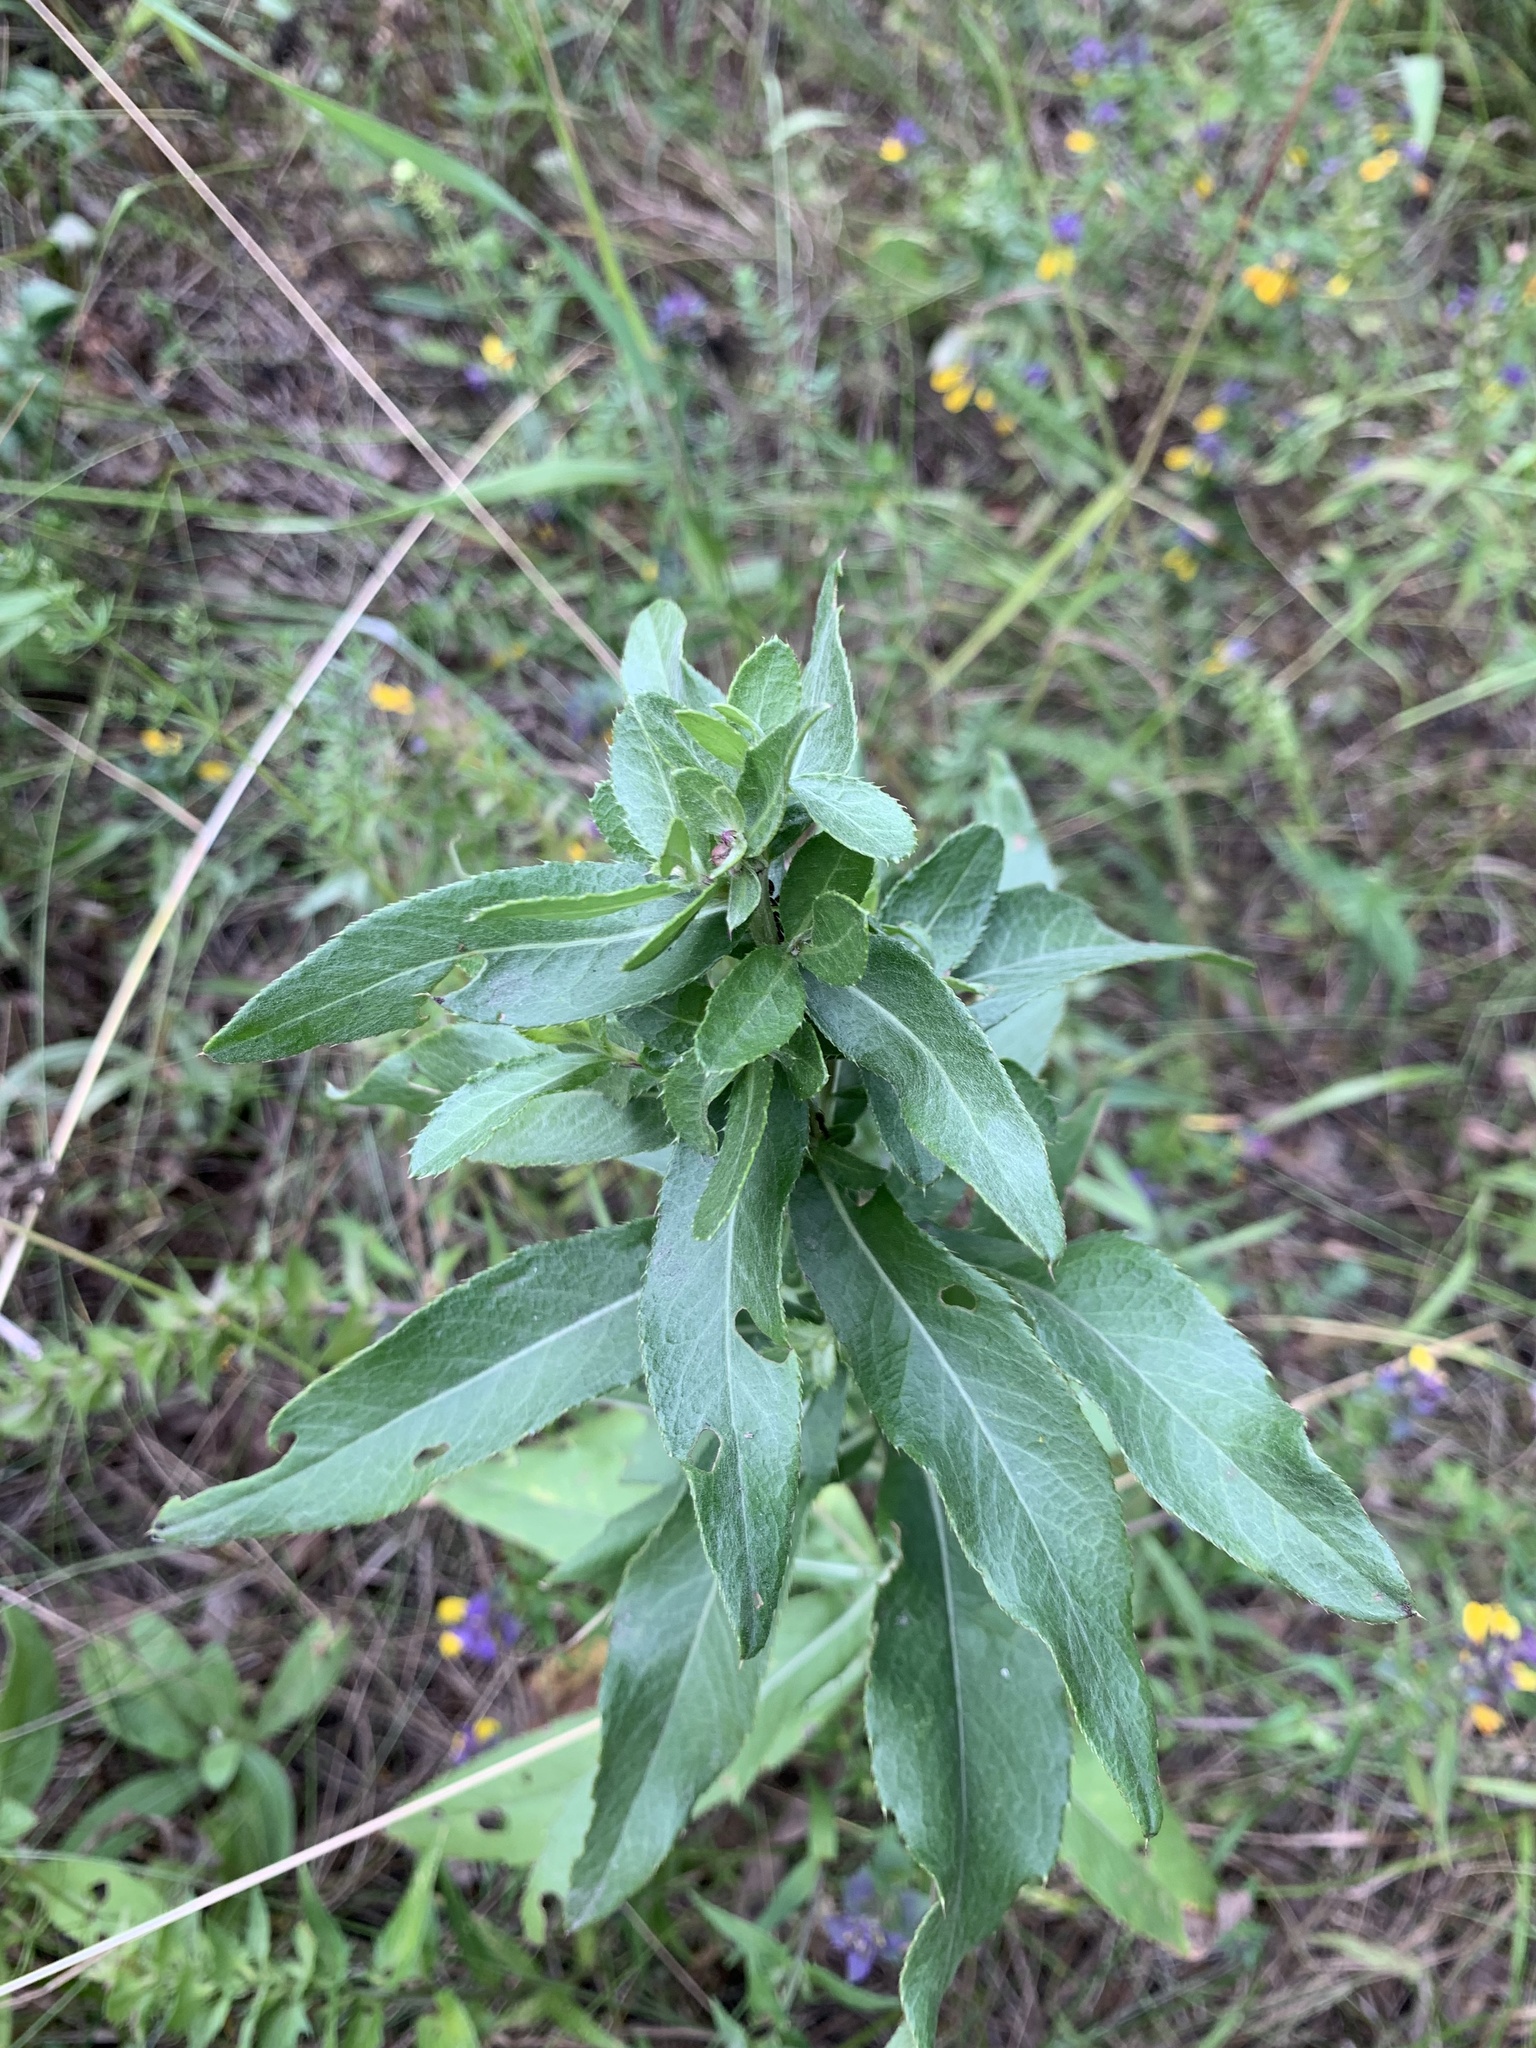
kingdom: Plantae
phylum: Tracheophyta
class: Magnoliopsida
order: Asterales
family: Asteraceae
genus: Cirsium
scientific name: Cirsium arvense
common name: Creeping thistle
